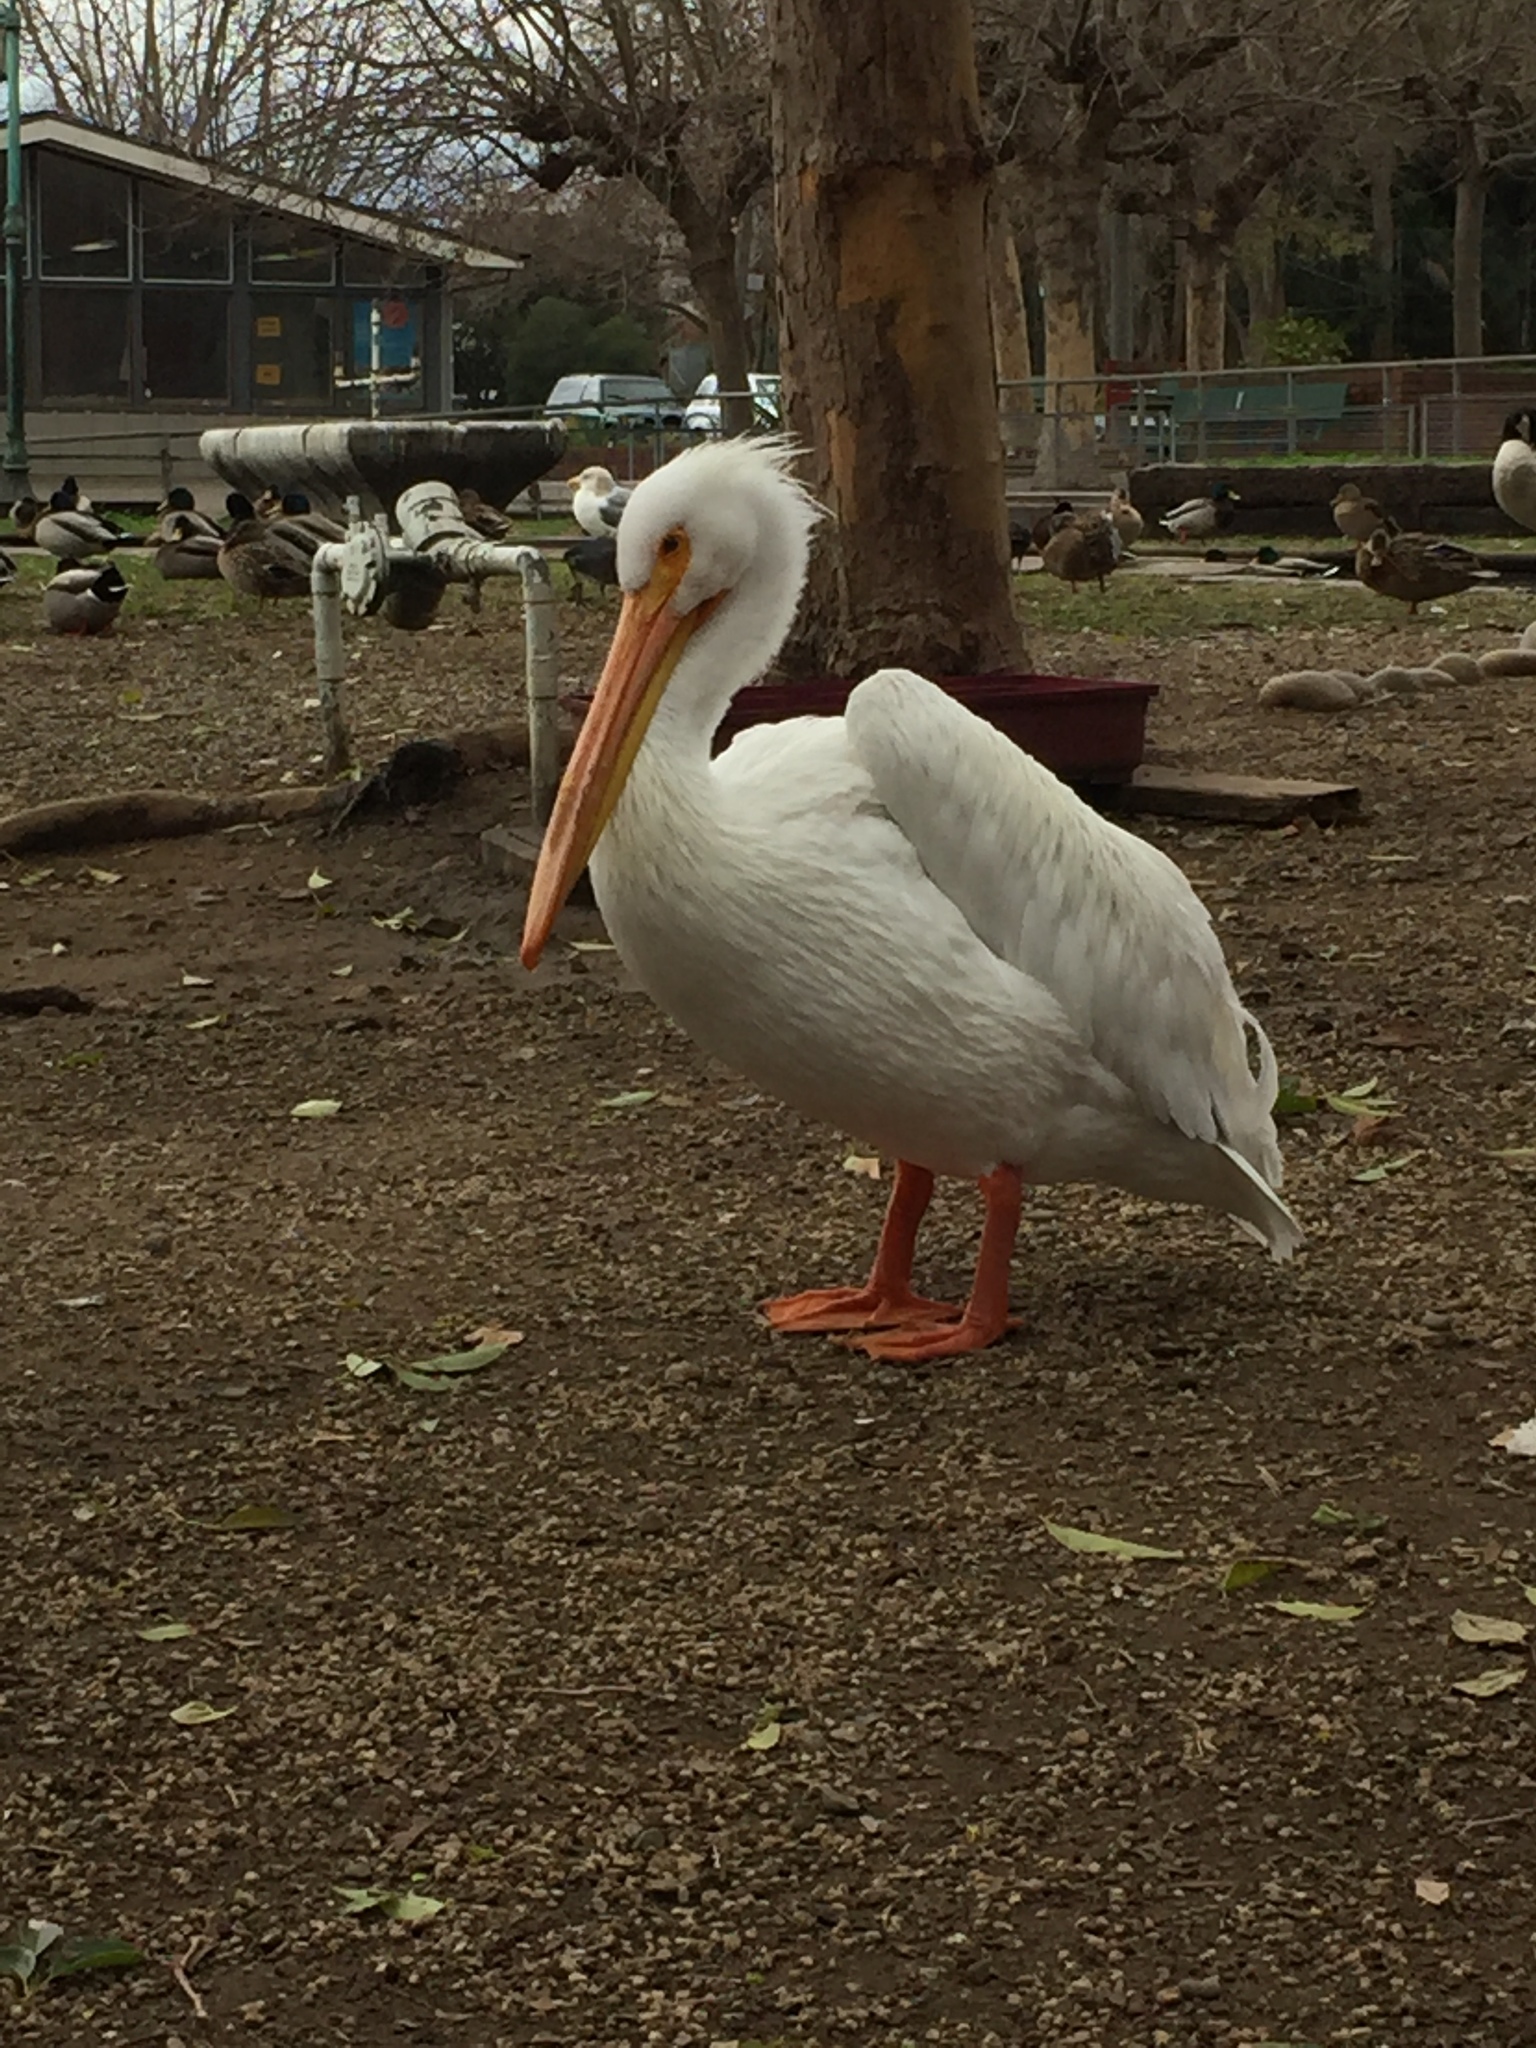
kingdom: Animalia
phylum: Chordata
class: Aves
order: Pelecaniformes
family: Pelecanidae
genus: Pelecanus
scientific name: Pelecanus erythrorhynchos
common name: American white pelican
